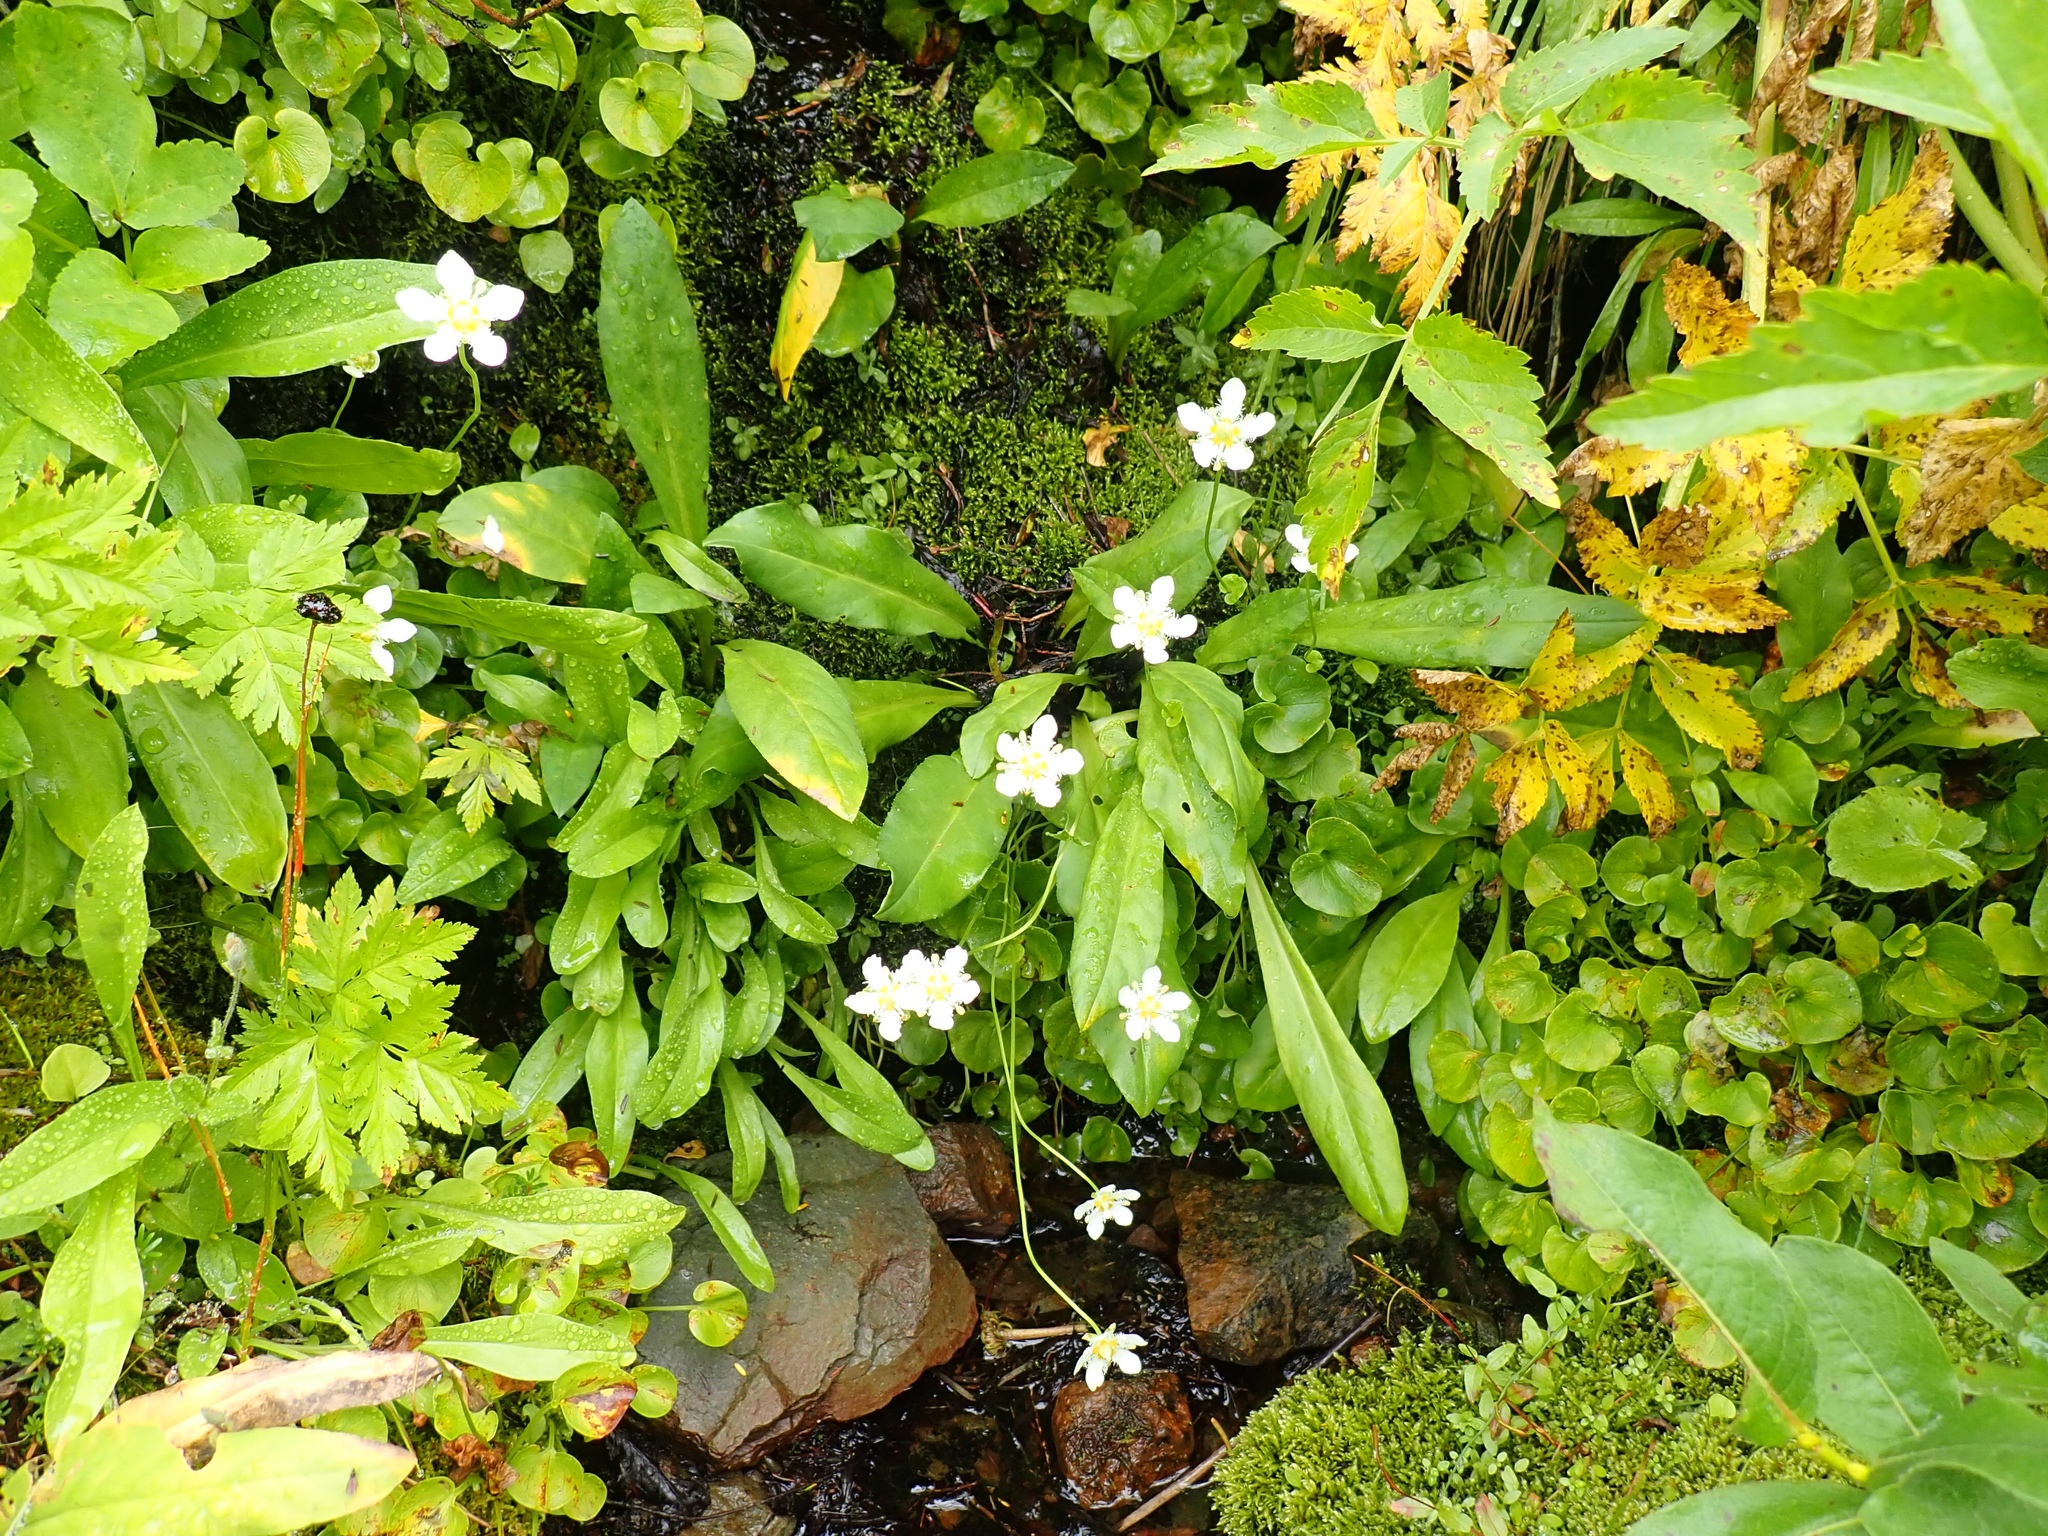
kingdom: Plantae
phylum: Tracheophyta
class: Magnoliopsida
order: Celastrales
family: Parnassiaceae
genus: Parnassia
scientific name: Parnassia fimbriata
